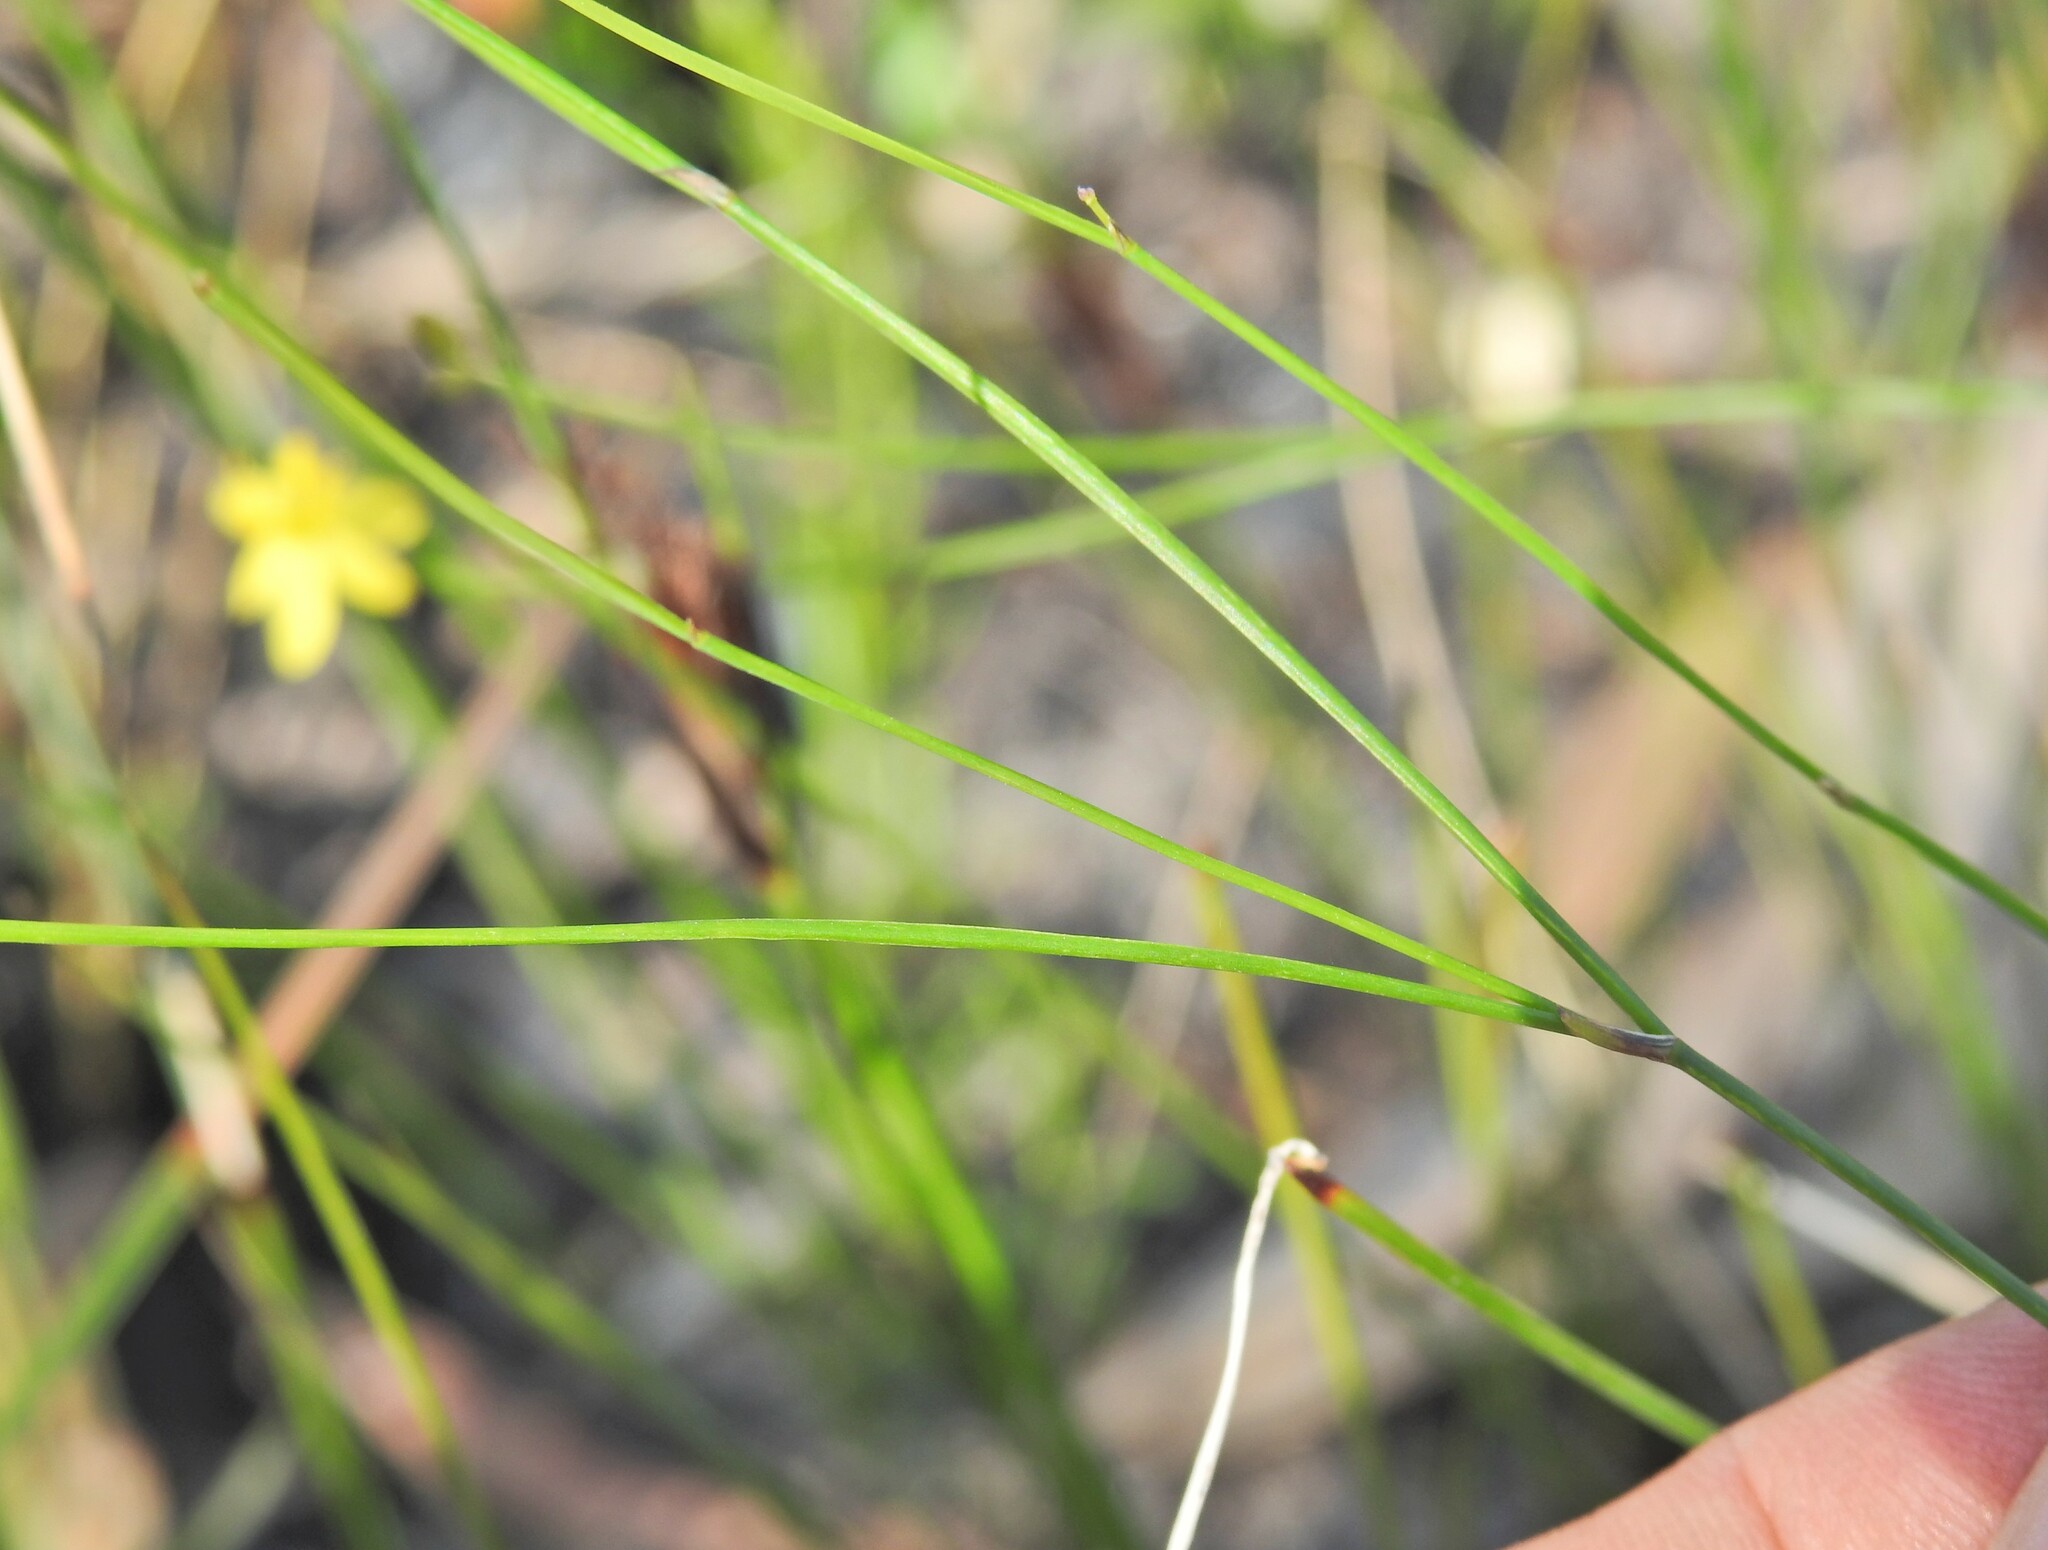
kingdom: Plantae
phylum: Tracheophyta
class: Liliopsida
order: Asparagales
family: Asphodelaceae
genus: Tricoryne
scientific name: Tricoryne elatior
